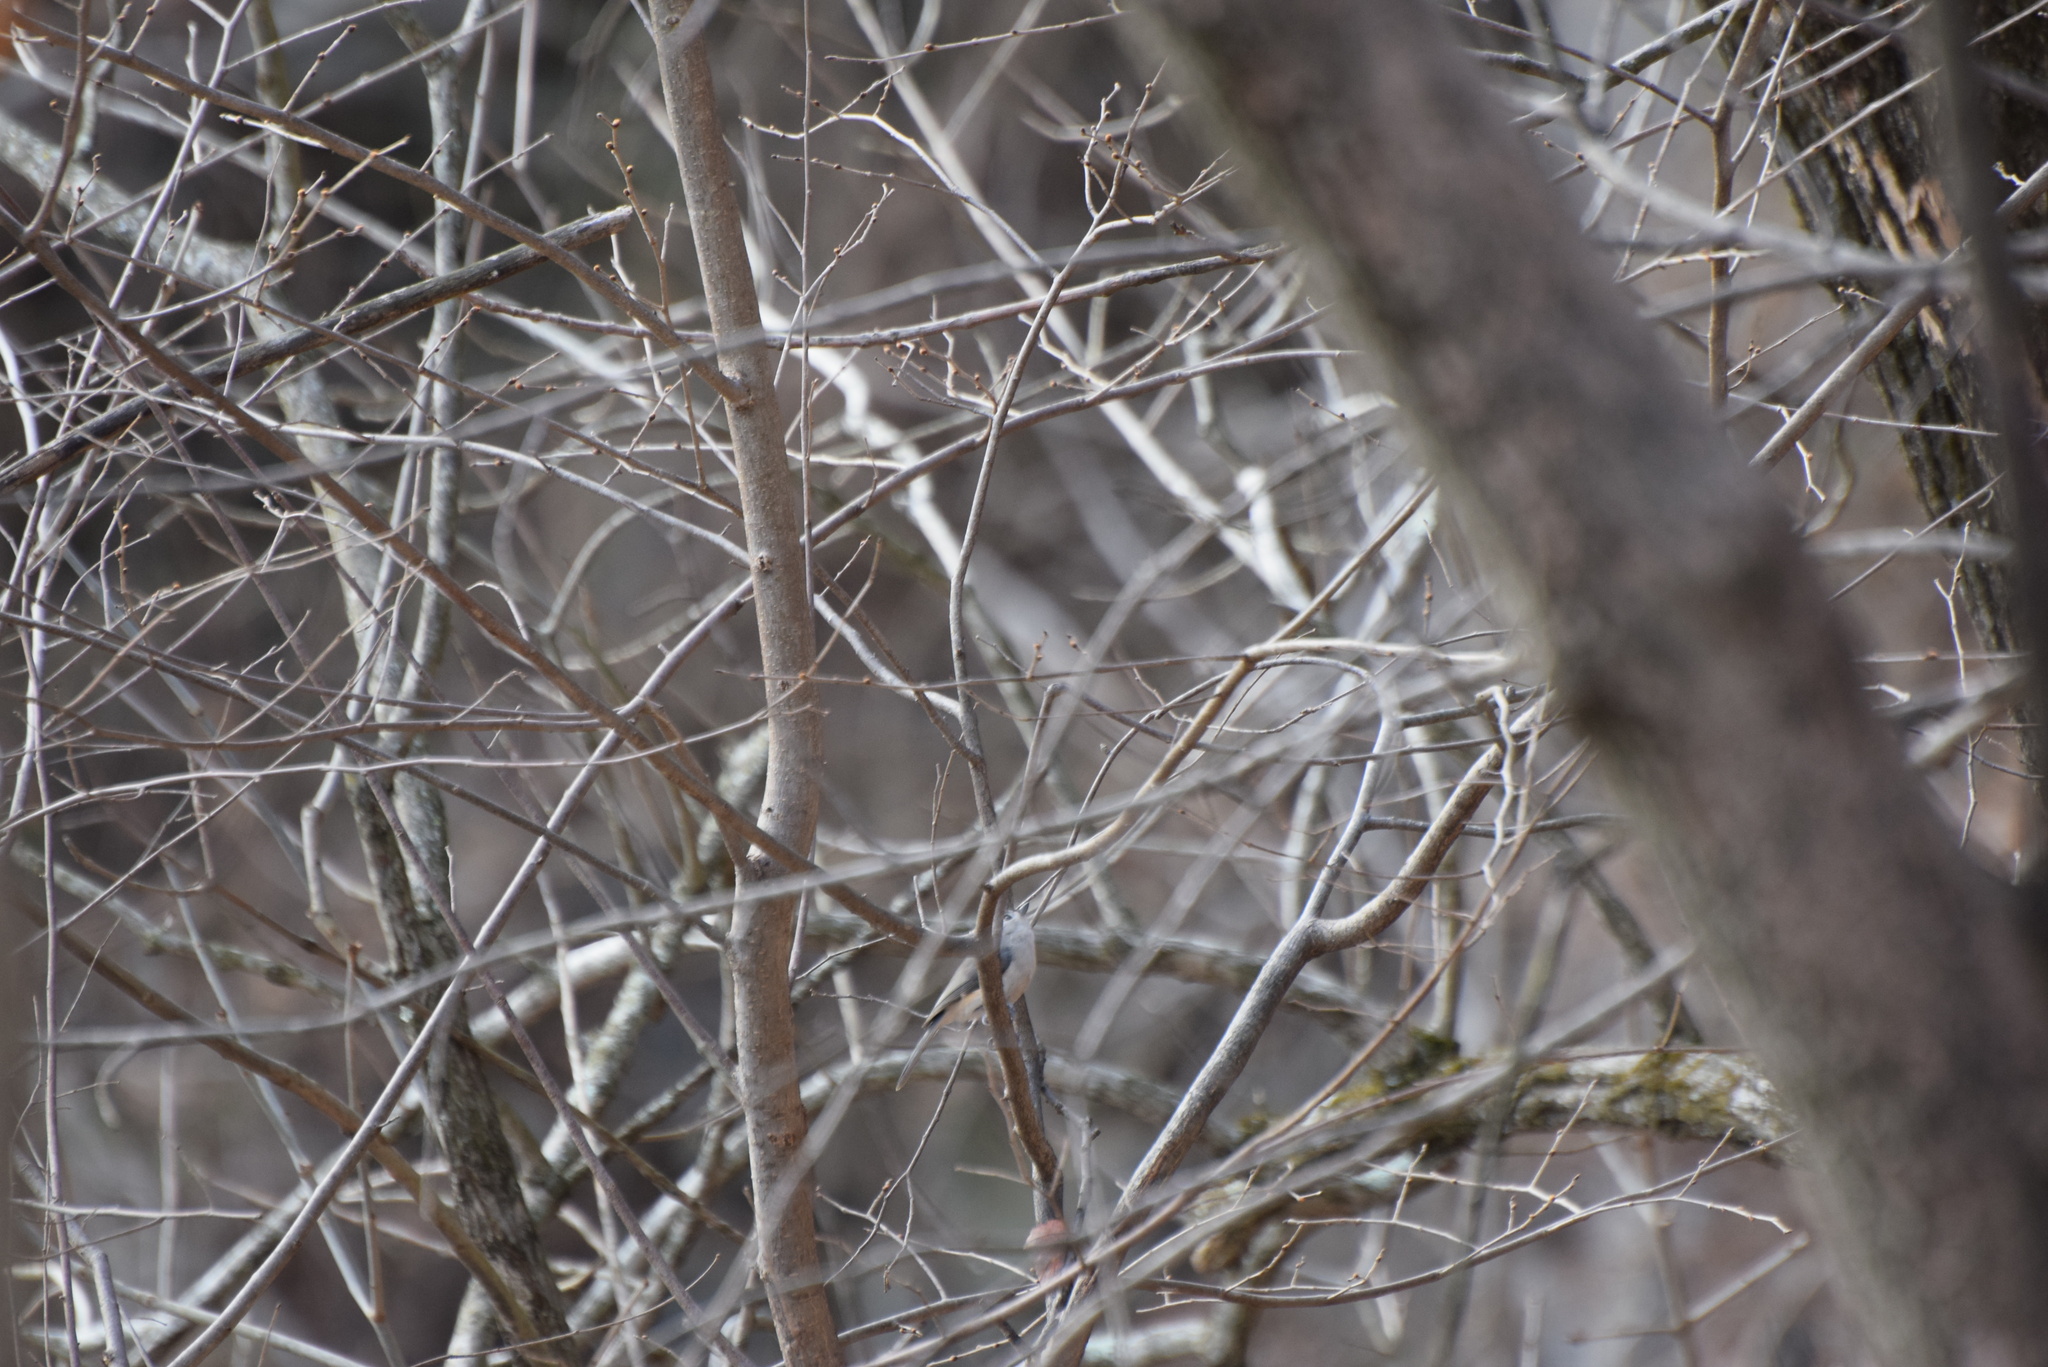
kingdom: Animalia
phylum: Chordata
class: Aves
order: Passeriformes
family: Paridae
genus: Baeolophus
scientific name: Baeolophus bicolor
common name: Tufted titmouse
